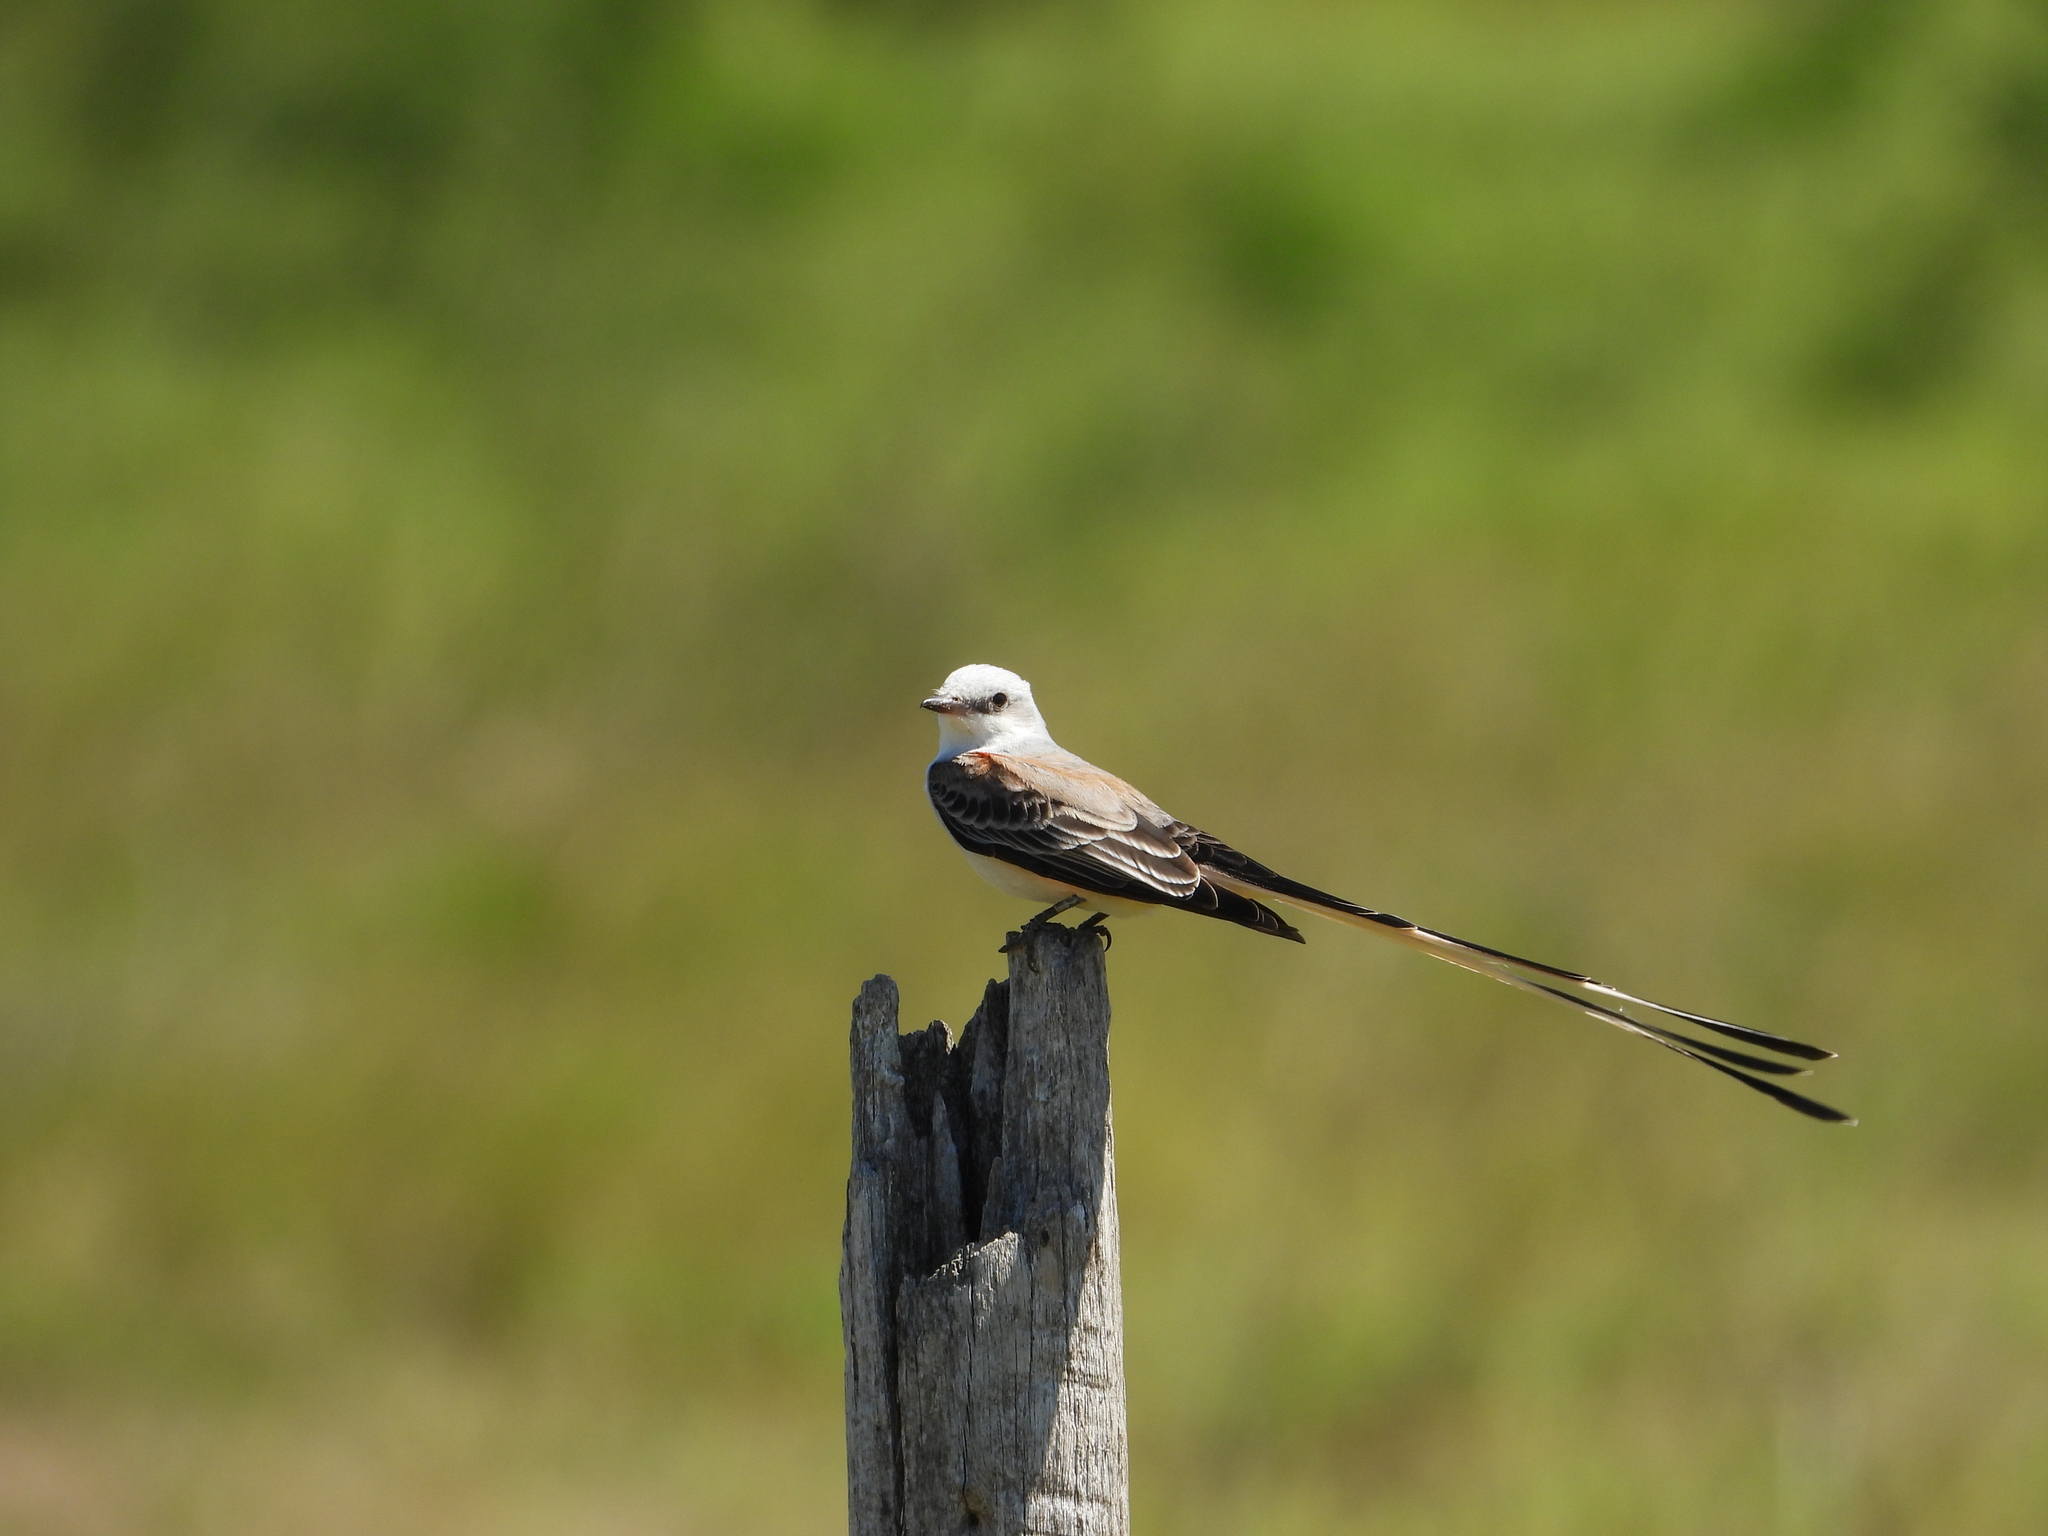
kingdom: Animalia
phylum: Chordata
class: Aves
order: Passeriformes
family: Tyrannidae
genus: Tyrannus
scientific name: Tyrannus forficatus
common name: Scissor-tailed flycatcher
